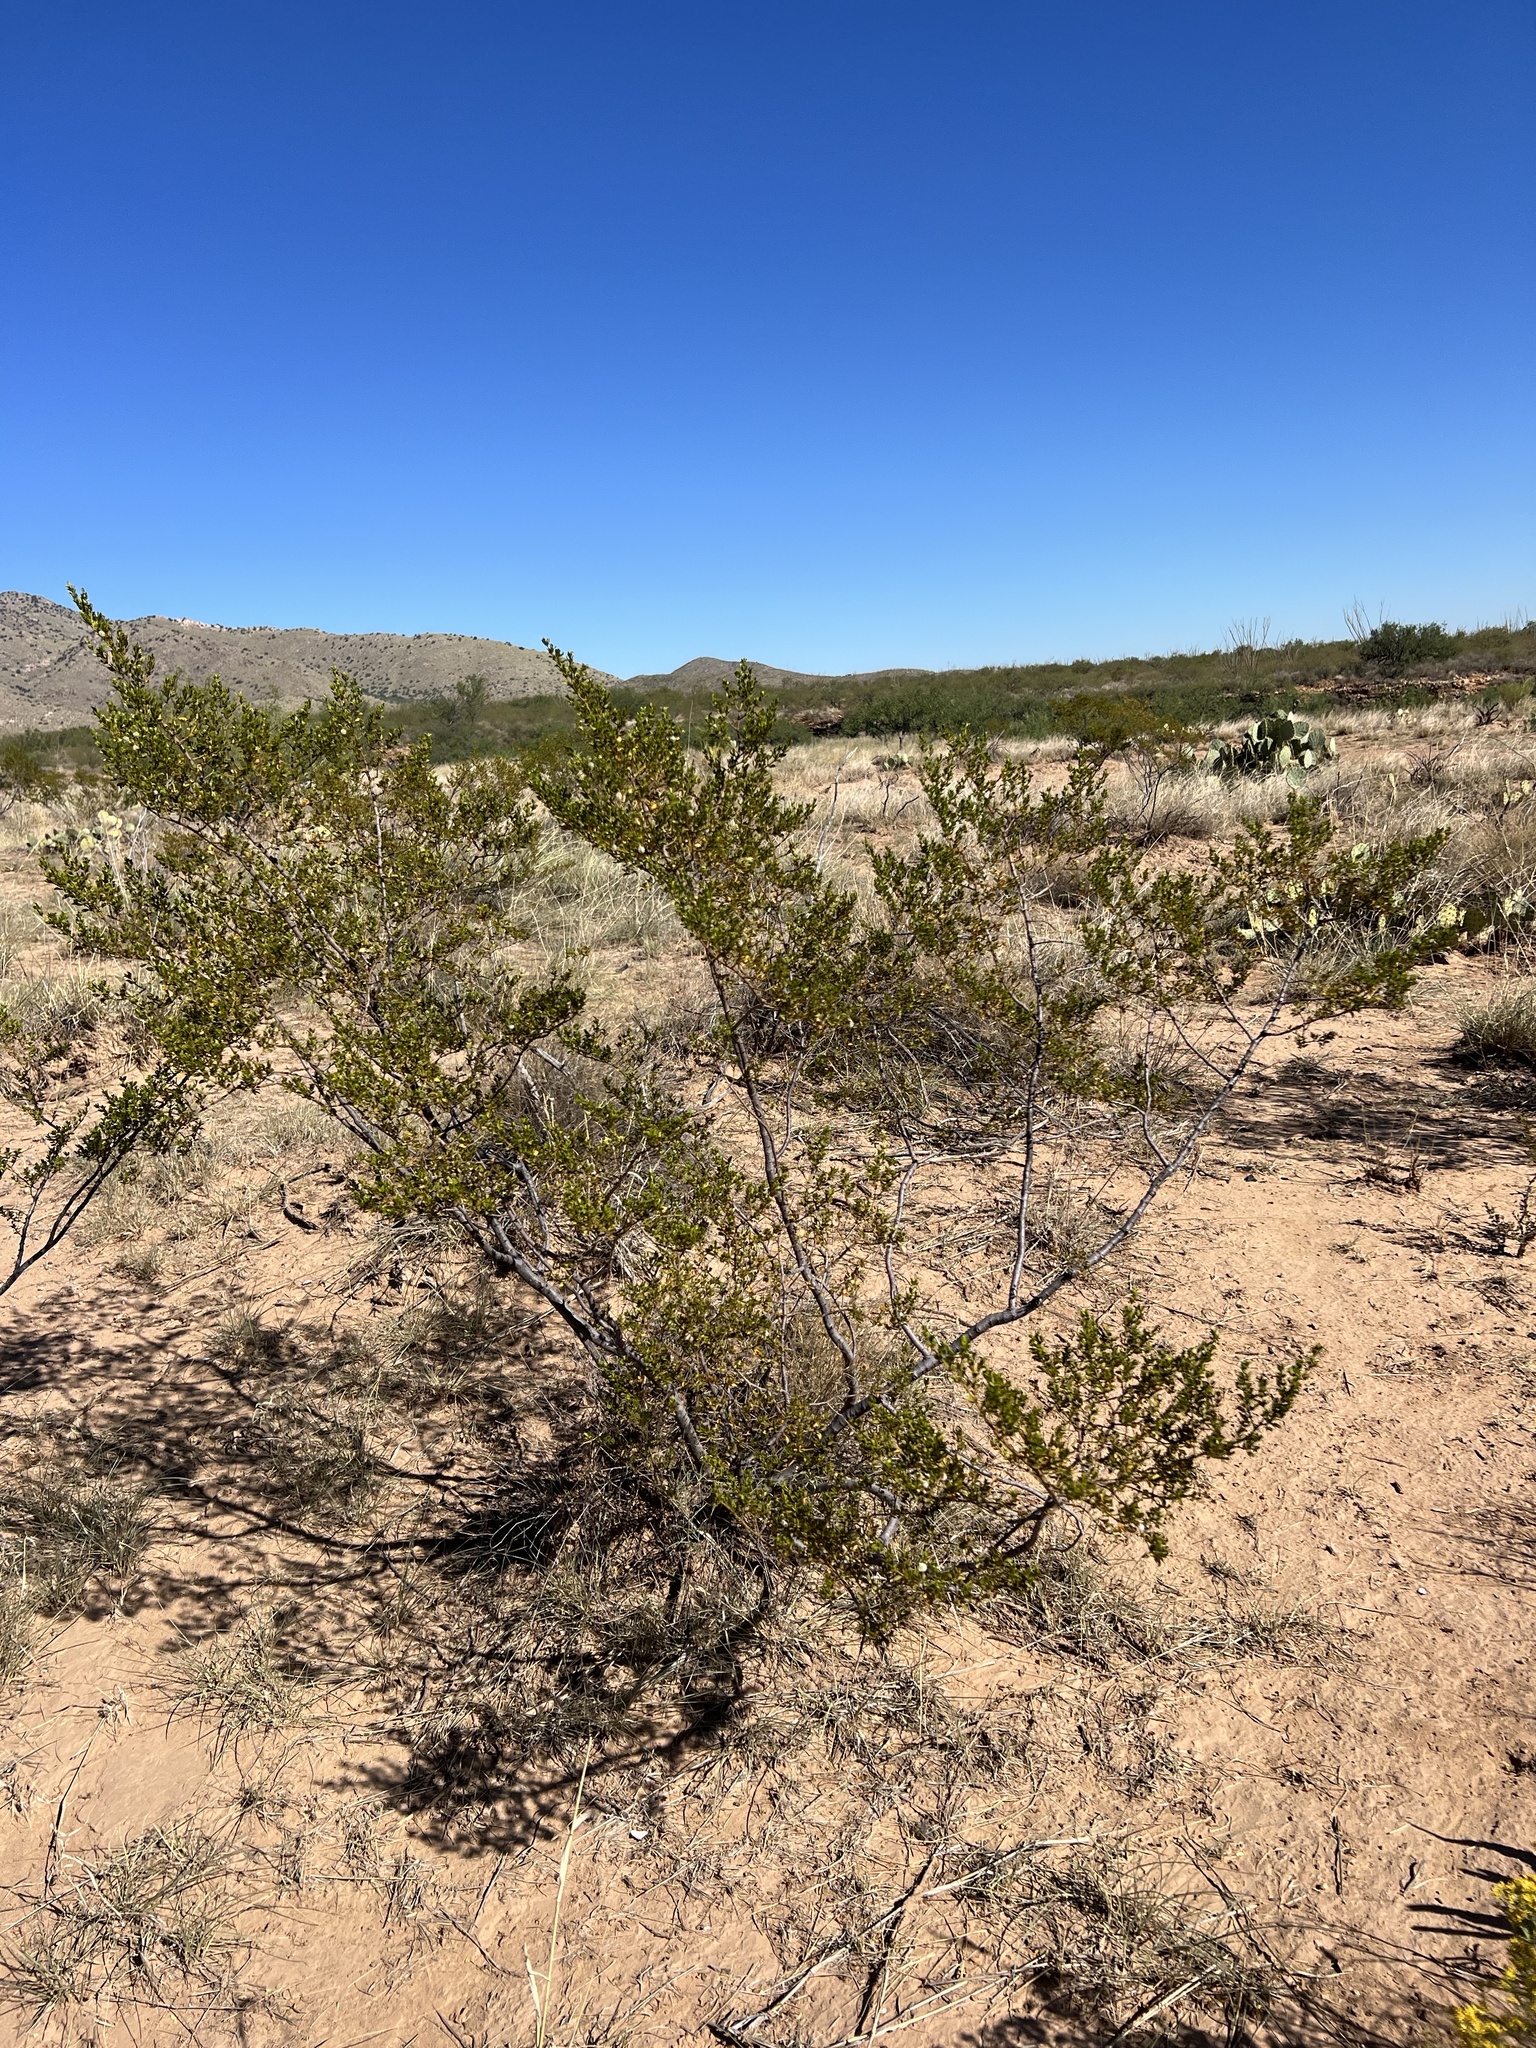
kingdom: Plantae
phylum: Tracheophyta
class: Magnoliopsida
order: Zygophyllales
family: Zygophyllaceae
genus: Larrea
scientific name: Larrea tridentata
